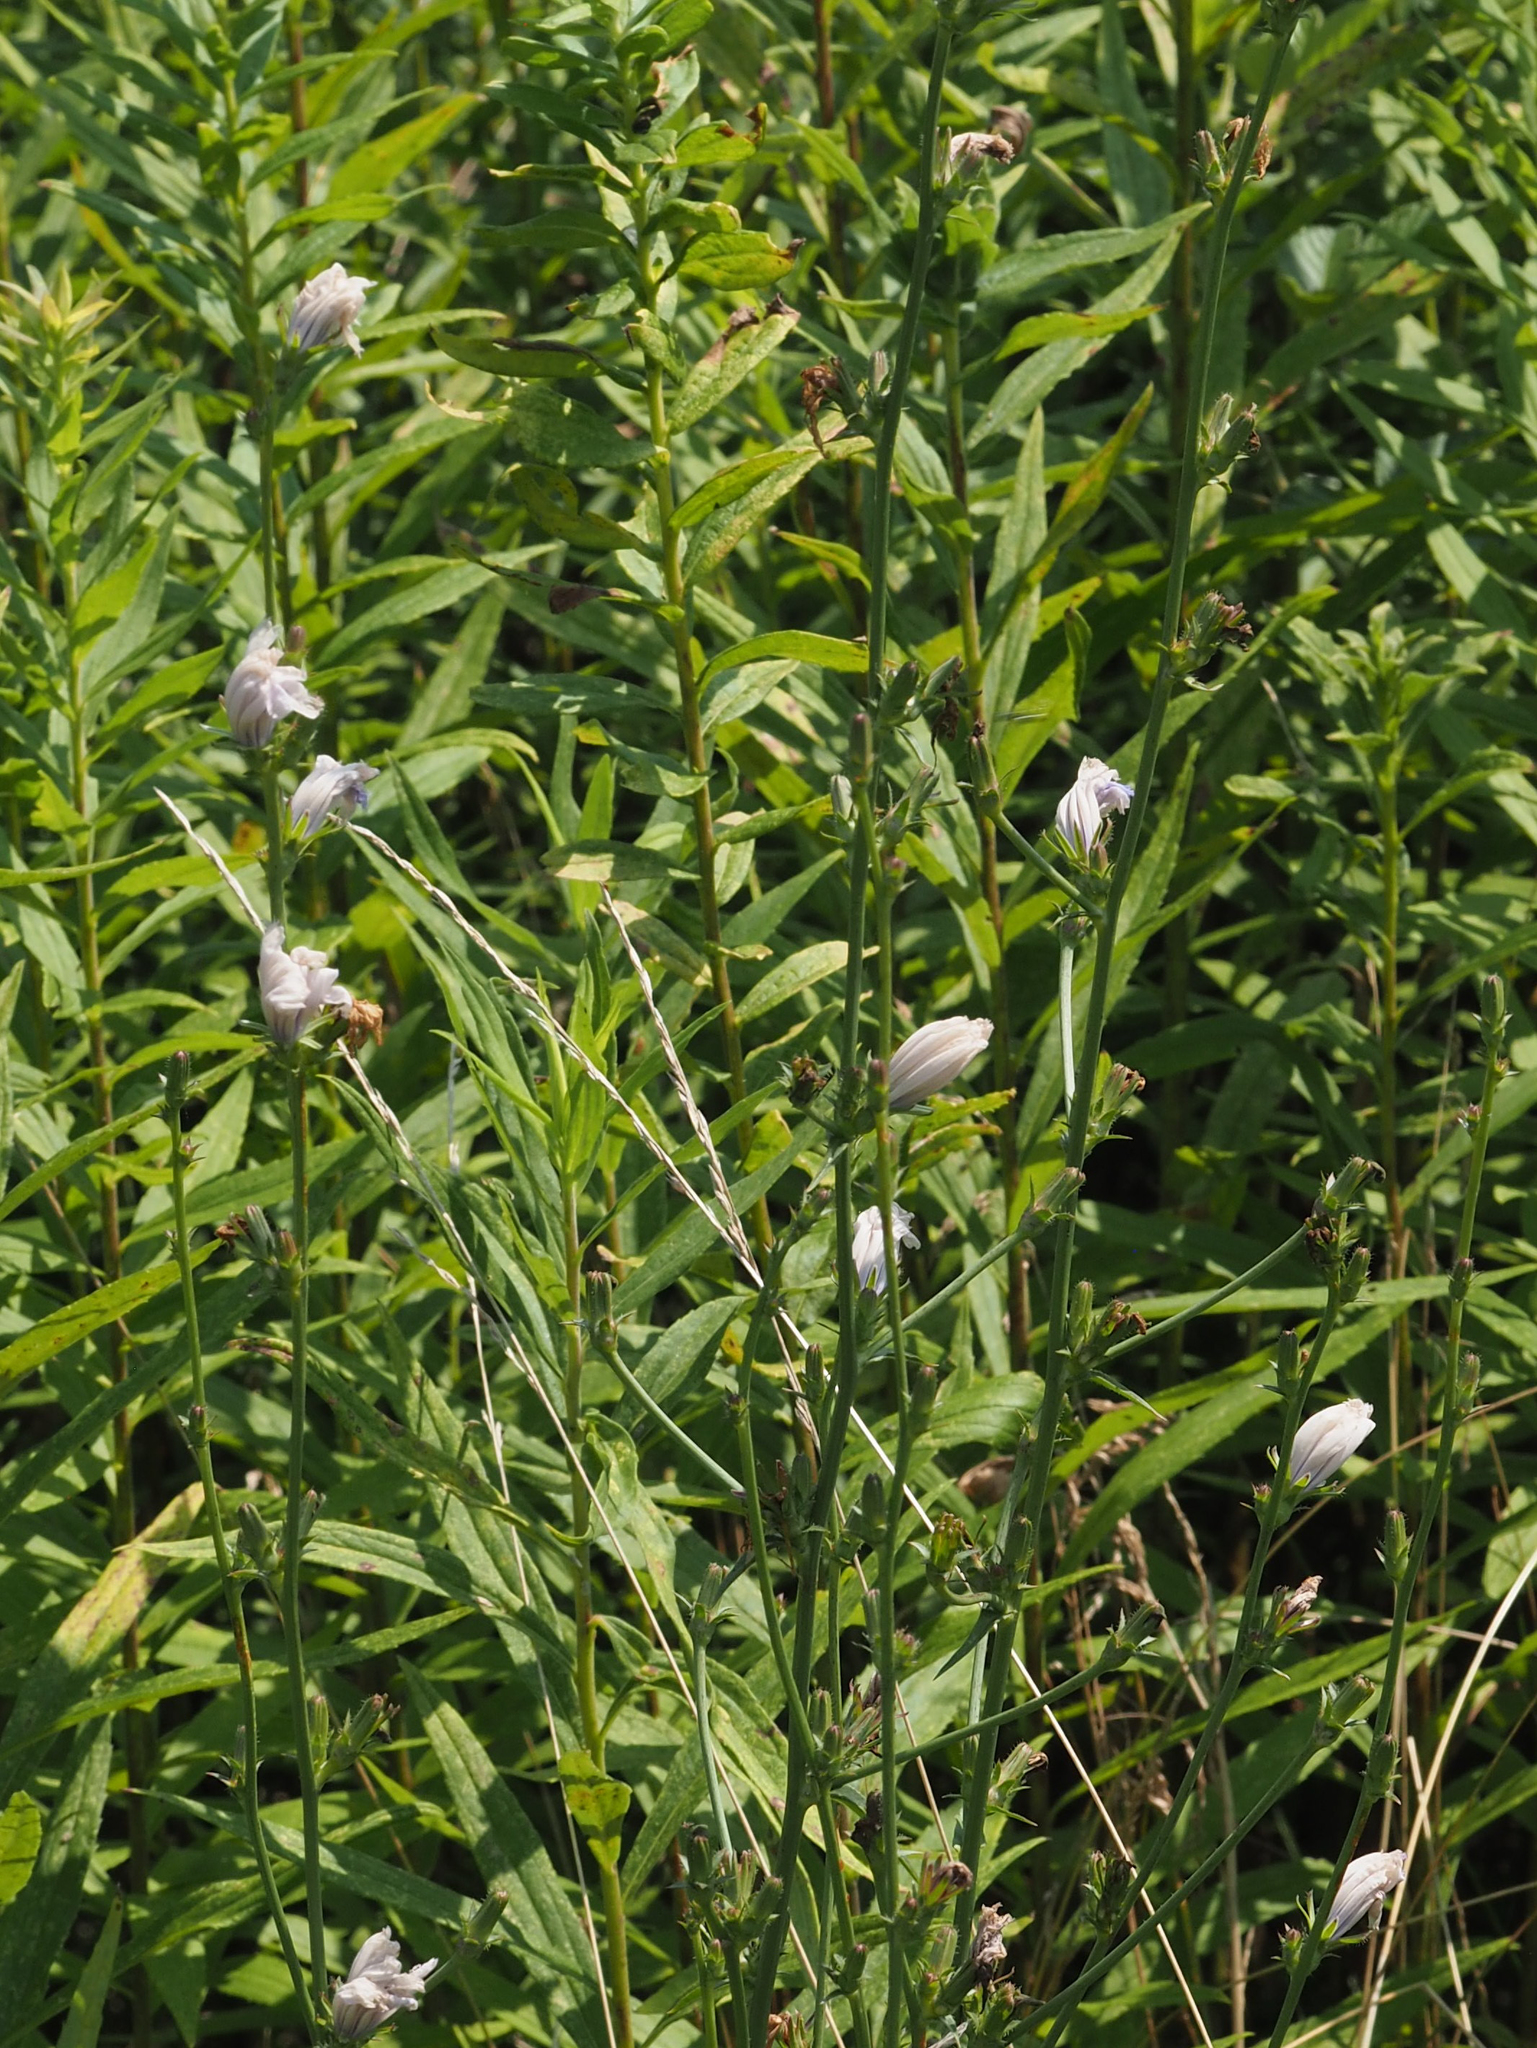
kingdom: Plantae
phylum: Tracheophyta
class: Magnoliopsida
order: Asterales
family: Asteraceae
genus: Cichorium
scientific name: Cichorium intybus
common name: Chicory
